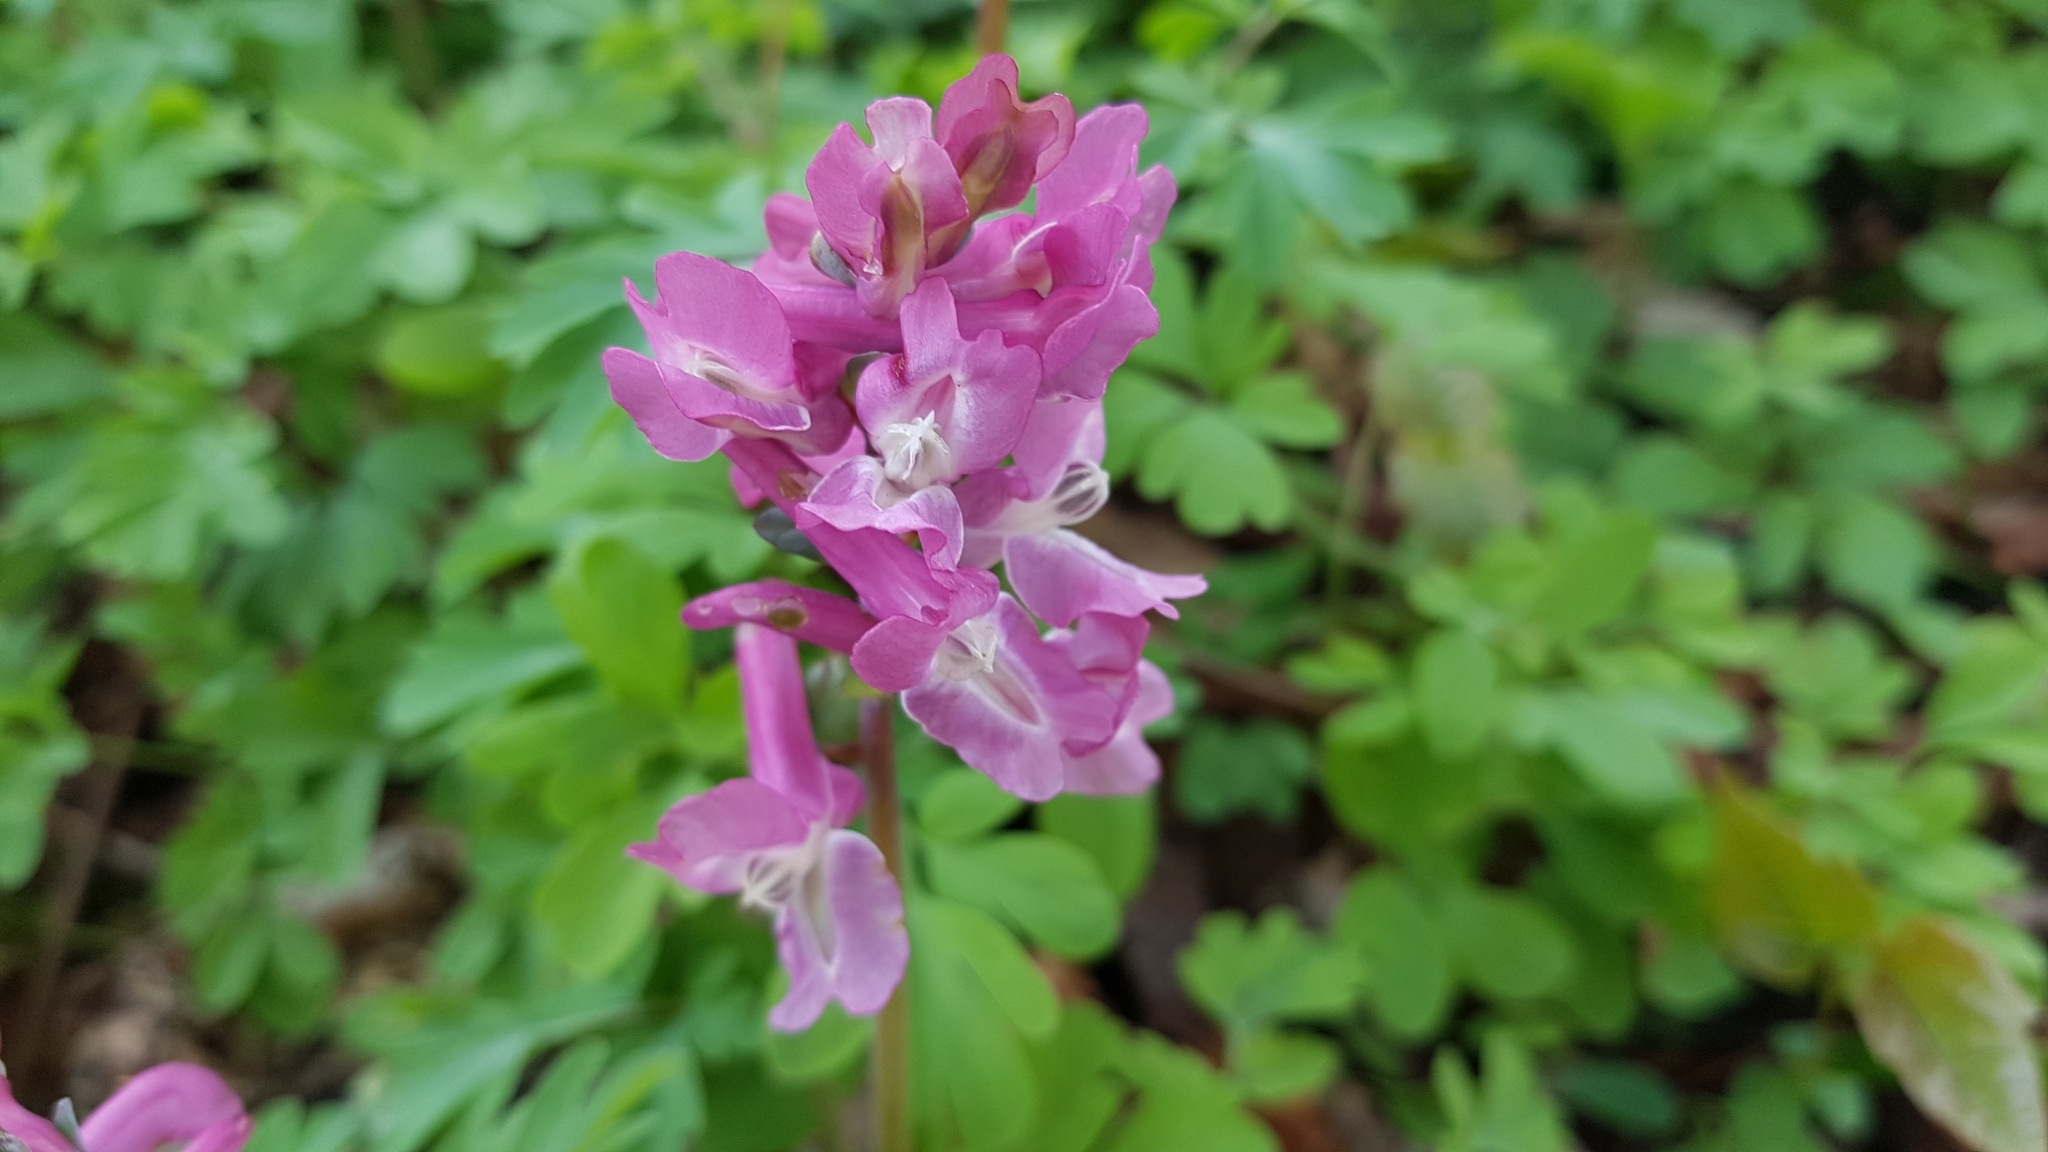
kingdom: Plantae
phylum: Tracheophyta
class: Magnoliopsida
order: Ranunculales
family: Papaveraceae
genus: Corydalis
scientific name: Corydalis cava
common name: Hollowroot
